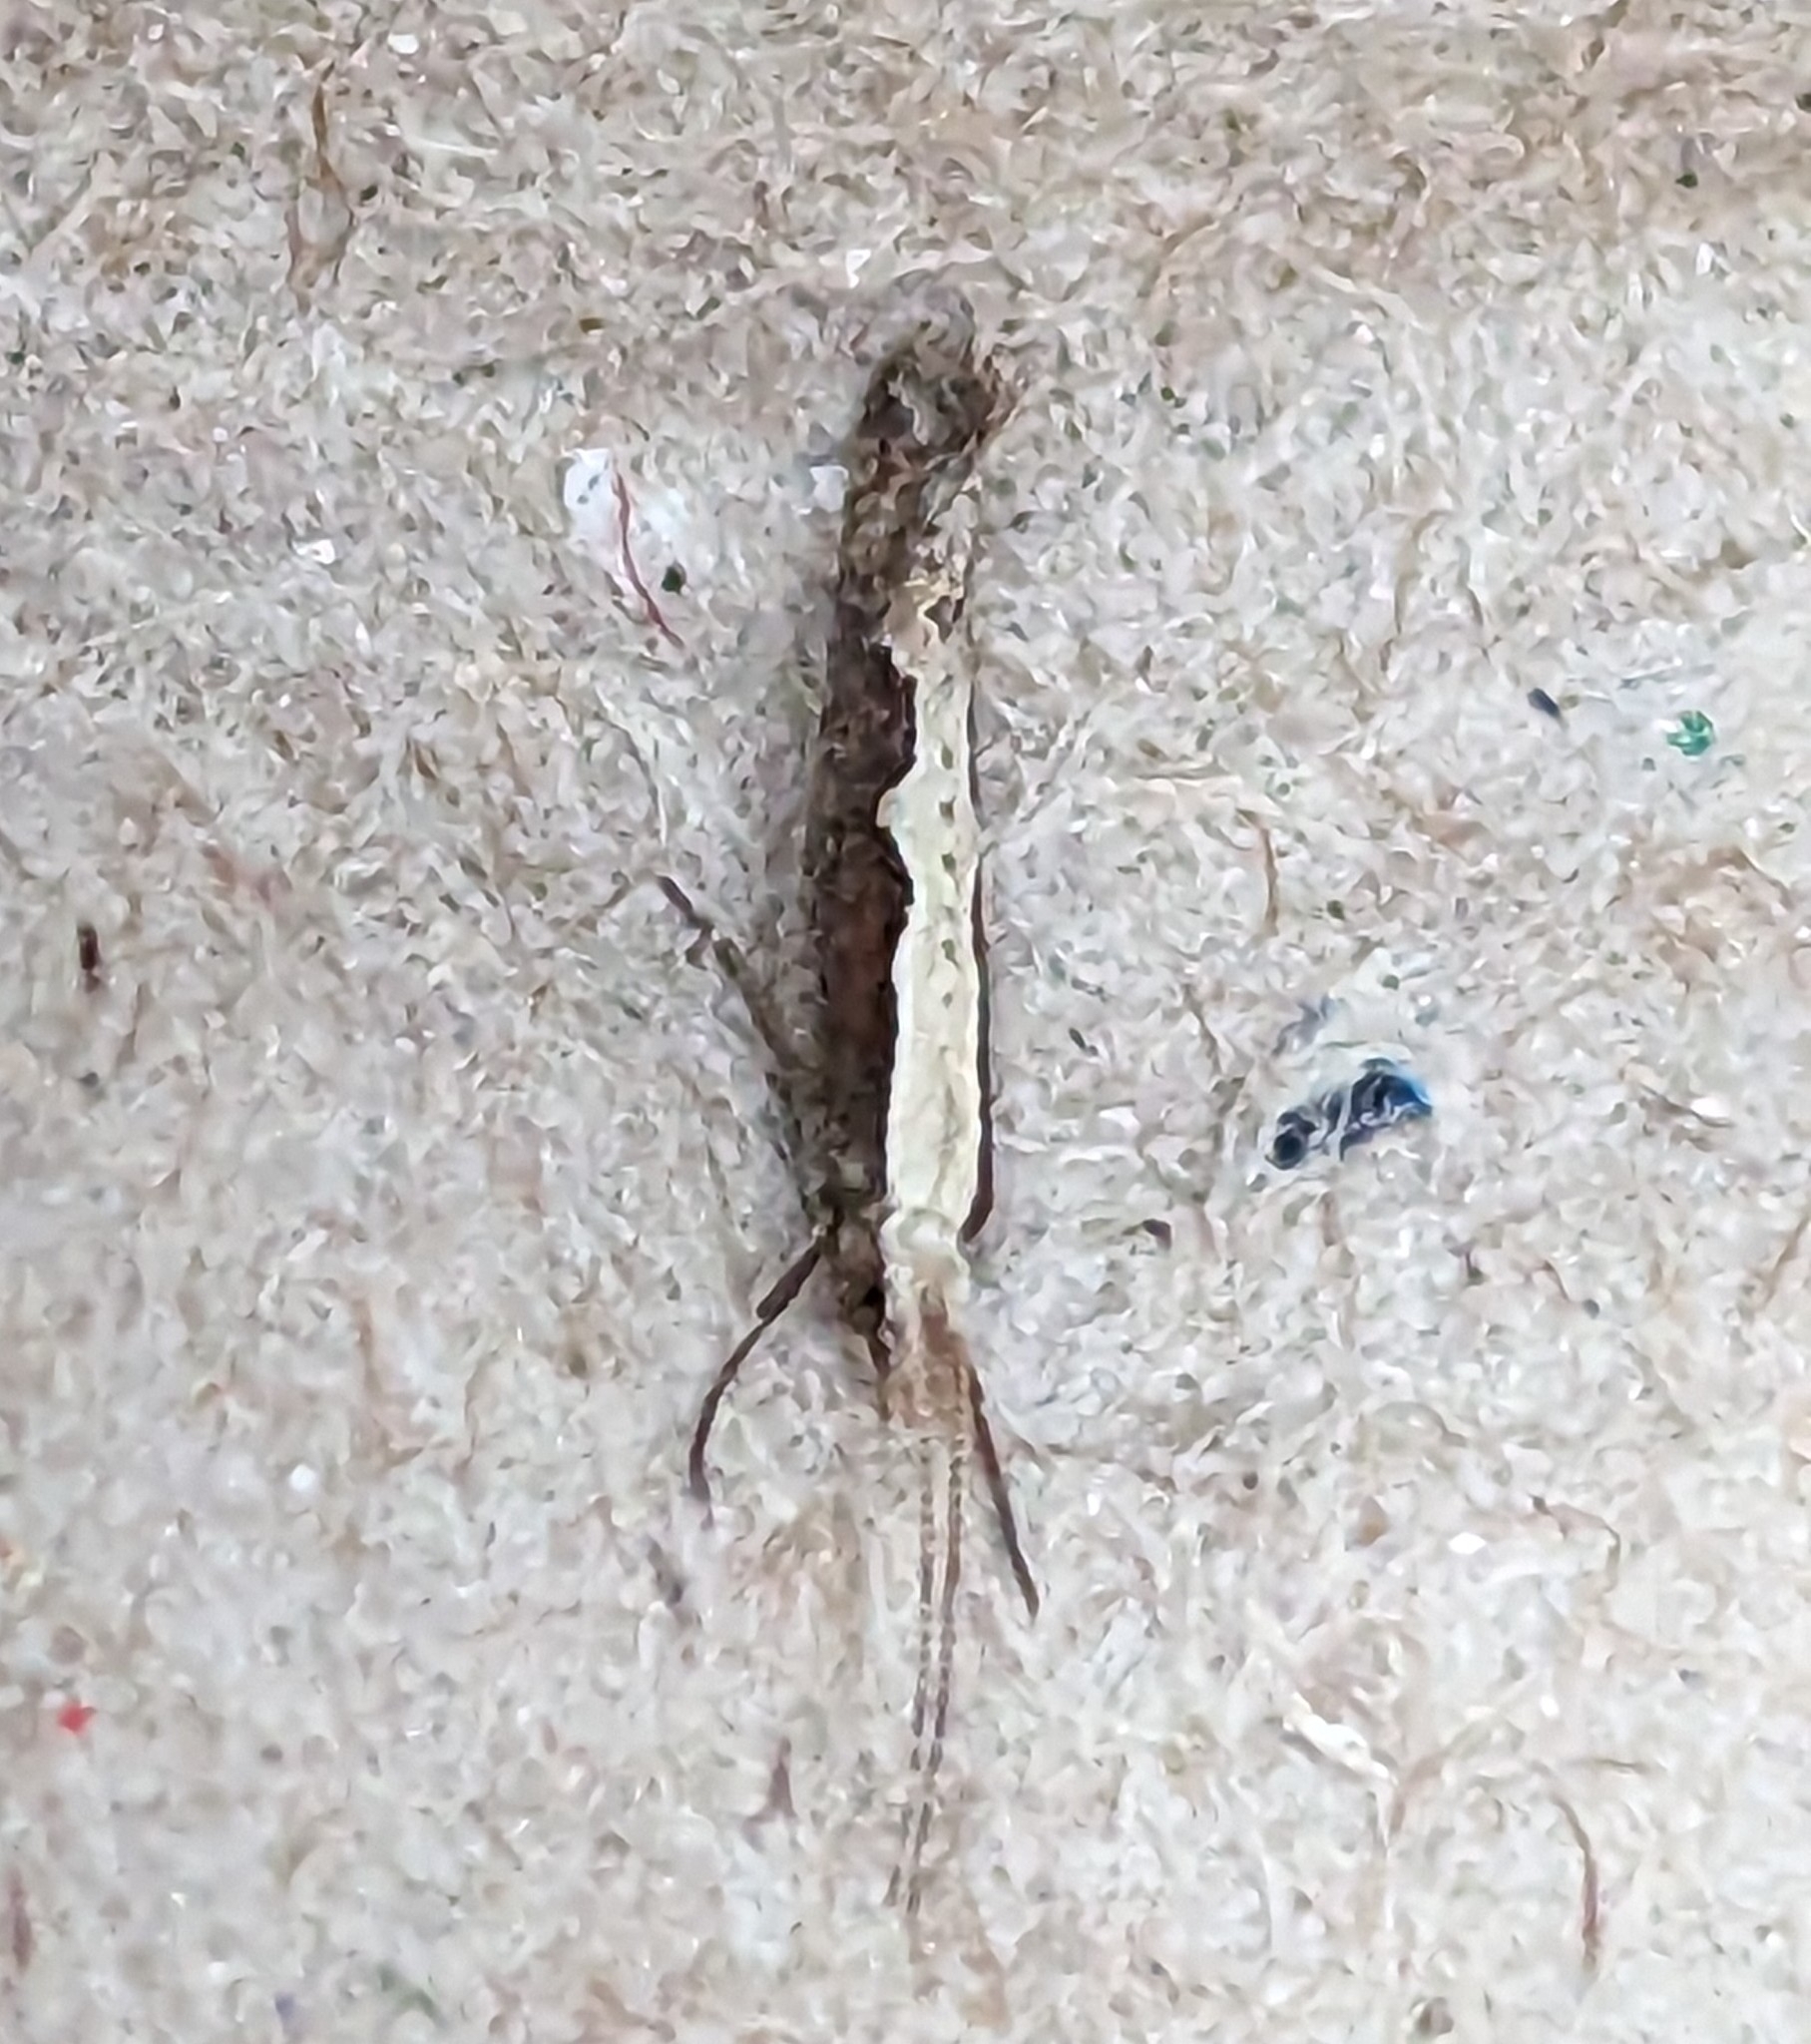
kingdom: Animalia
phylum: Arthropoda
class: Insecta
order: Lepidoptera
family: Plutellidae
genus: Plutella
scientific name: Plutella xylostella
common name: Diamond-back moth
